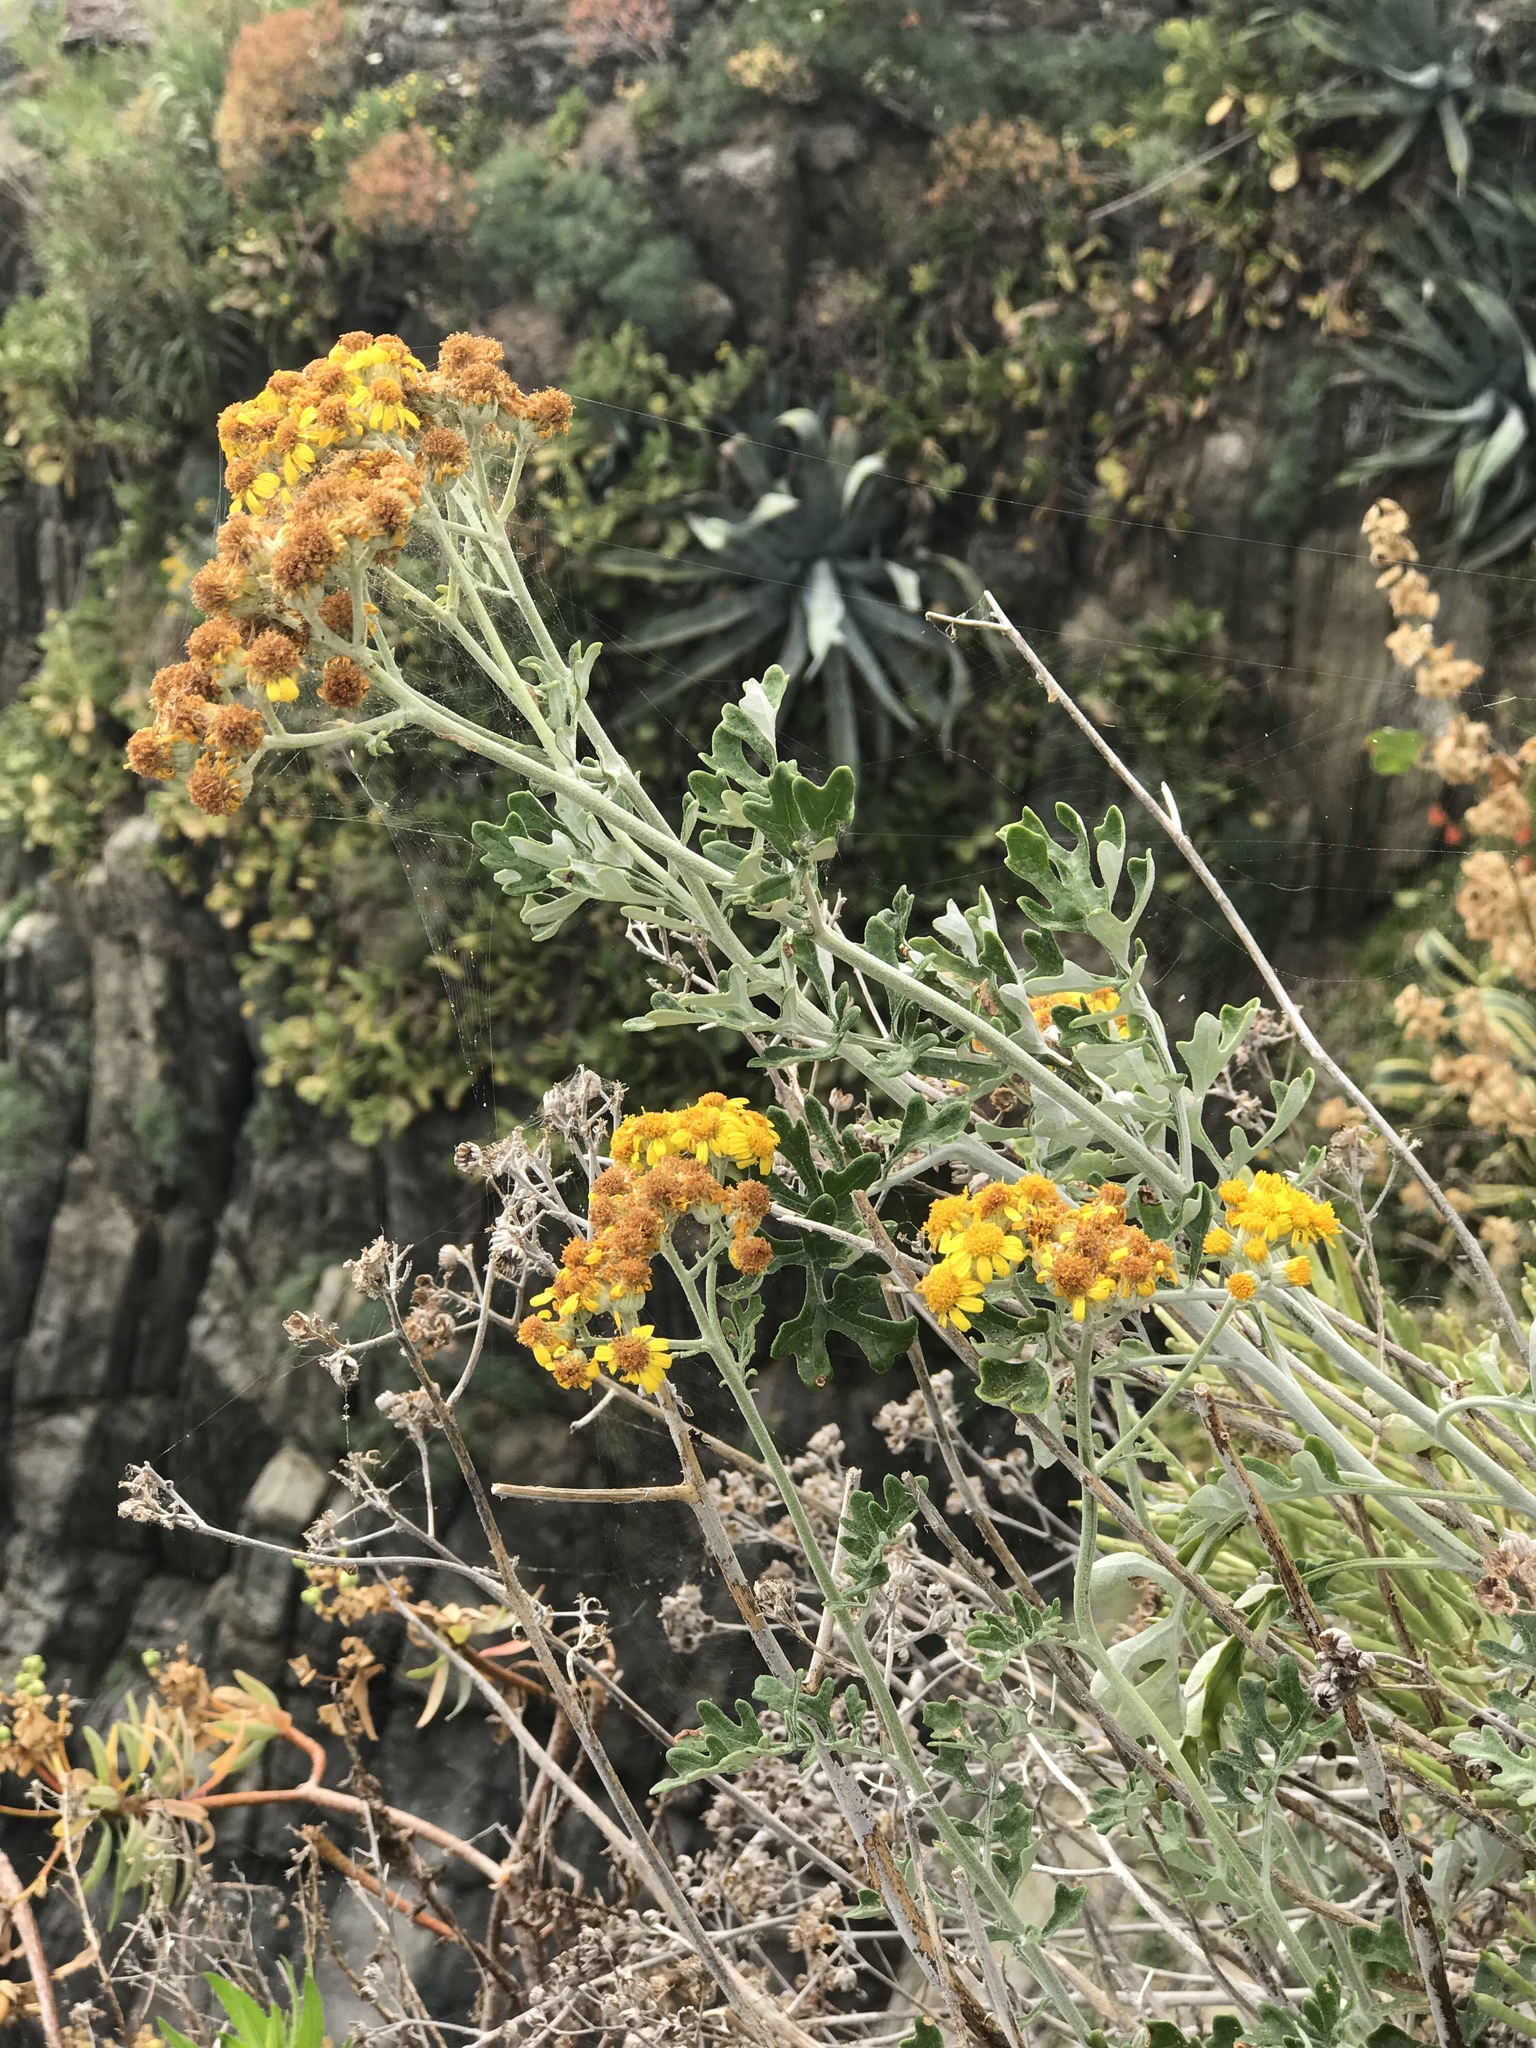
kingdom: Plantae
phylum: Tracheophyta
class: Magnoliopsida
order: Asterales
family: Asteraceae
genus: Jacobaea
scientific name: Jacobaea maritima
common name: Silver ragwort
